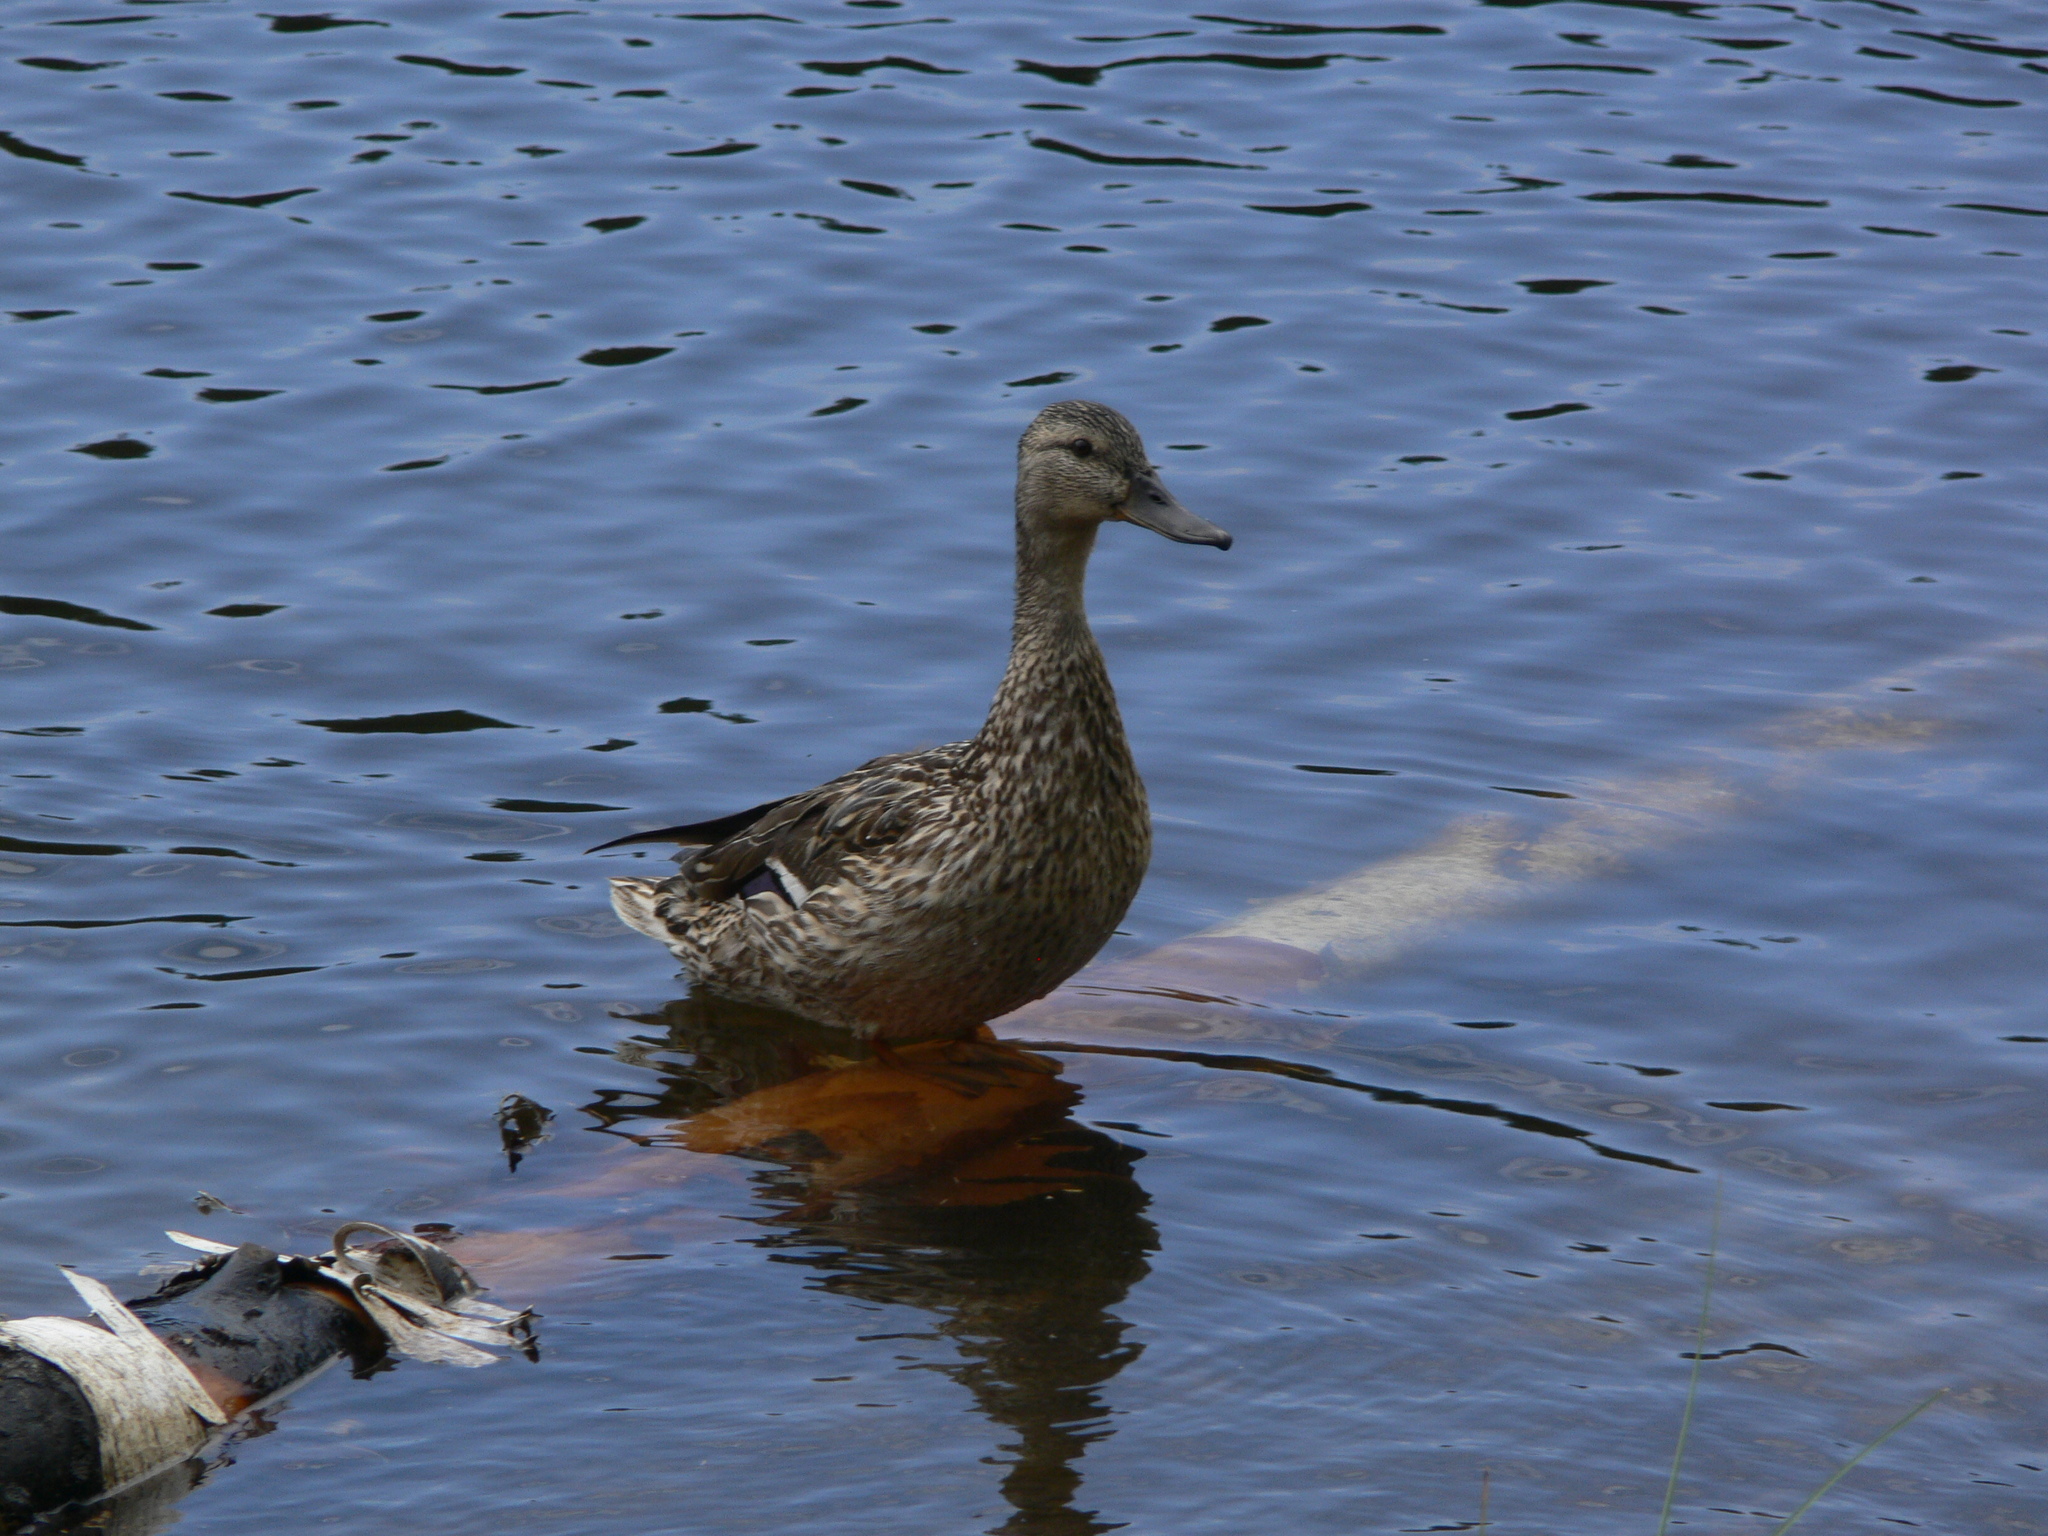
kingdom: Animalia
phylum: Chordata
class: Aves
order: Anseriformes
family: Anatidae
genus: Anas
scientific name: Anas platyrhynchos
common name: Mallard
